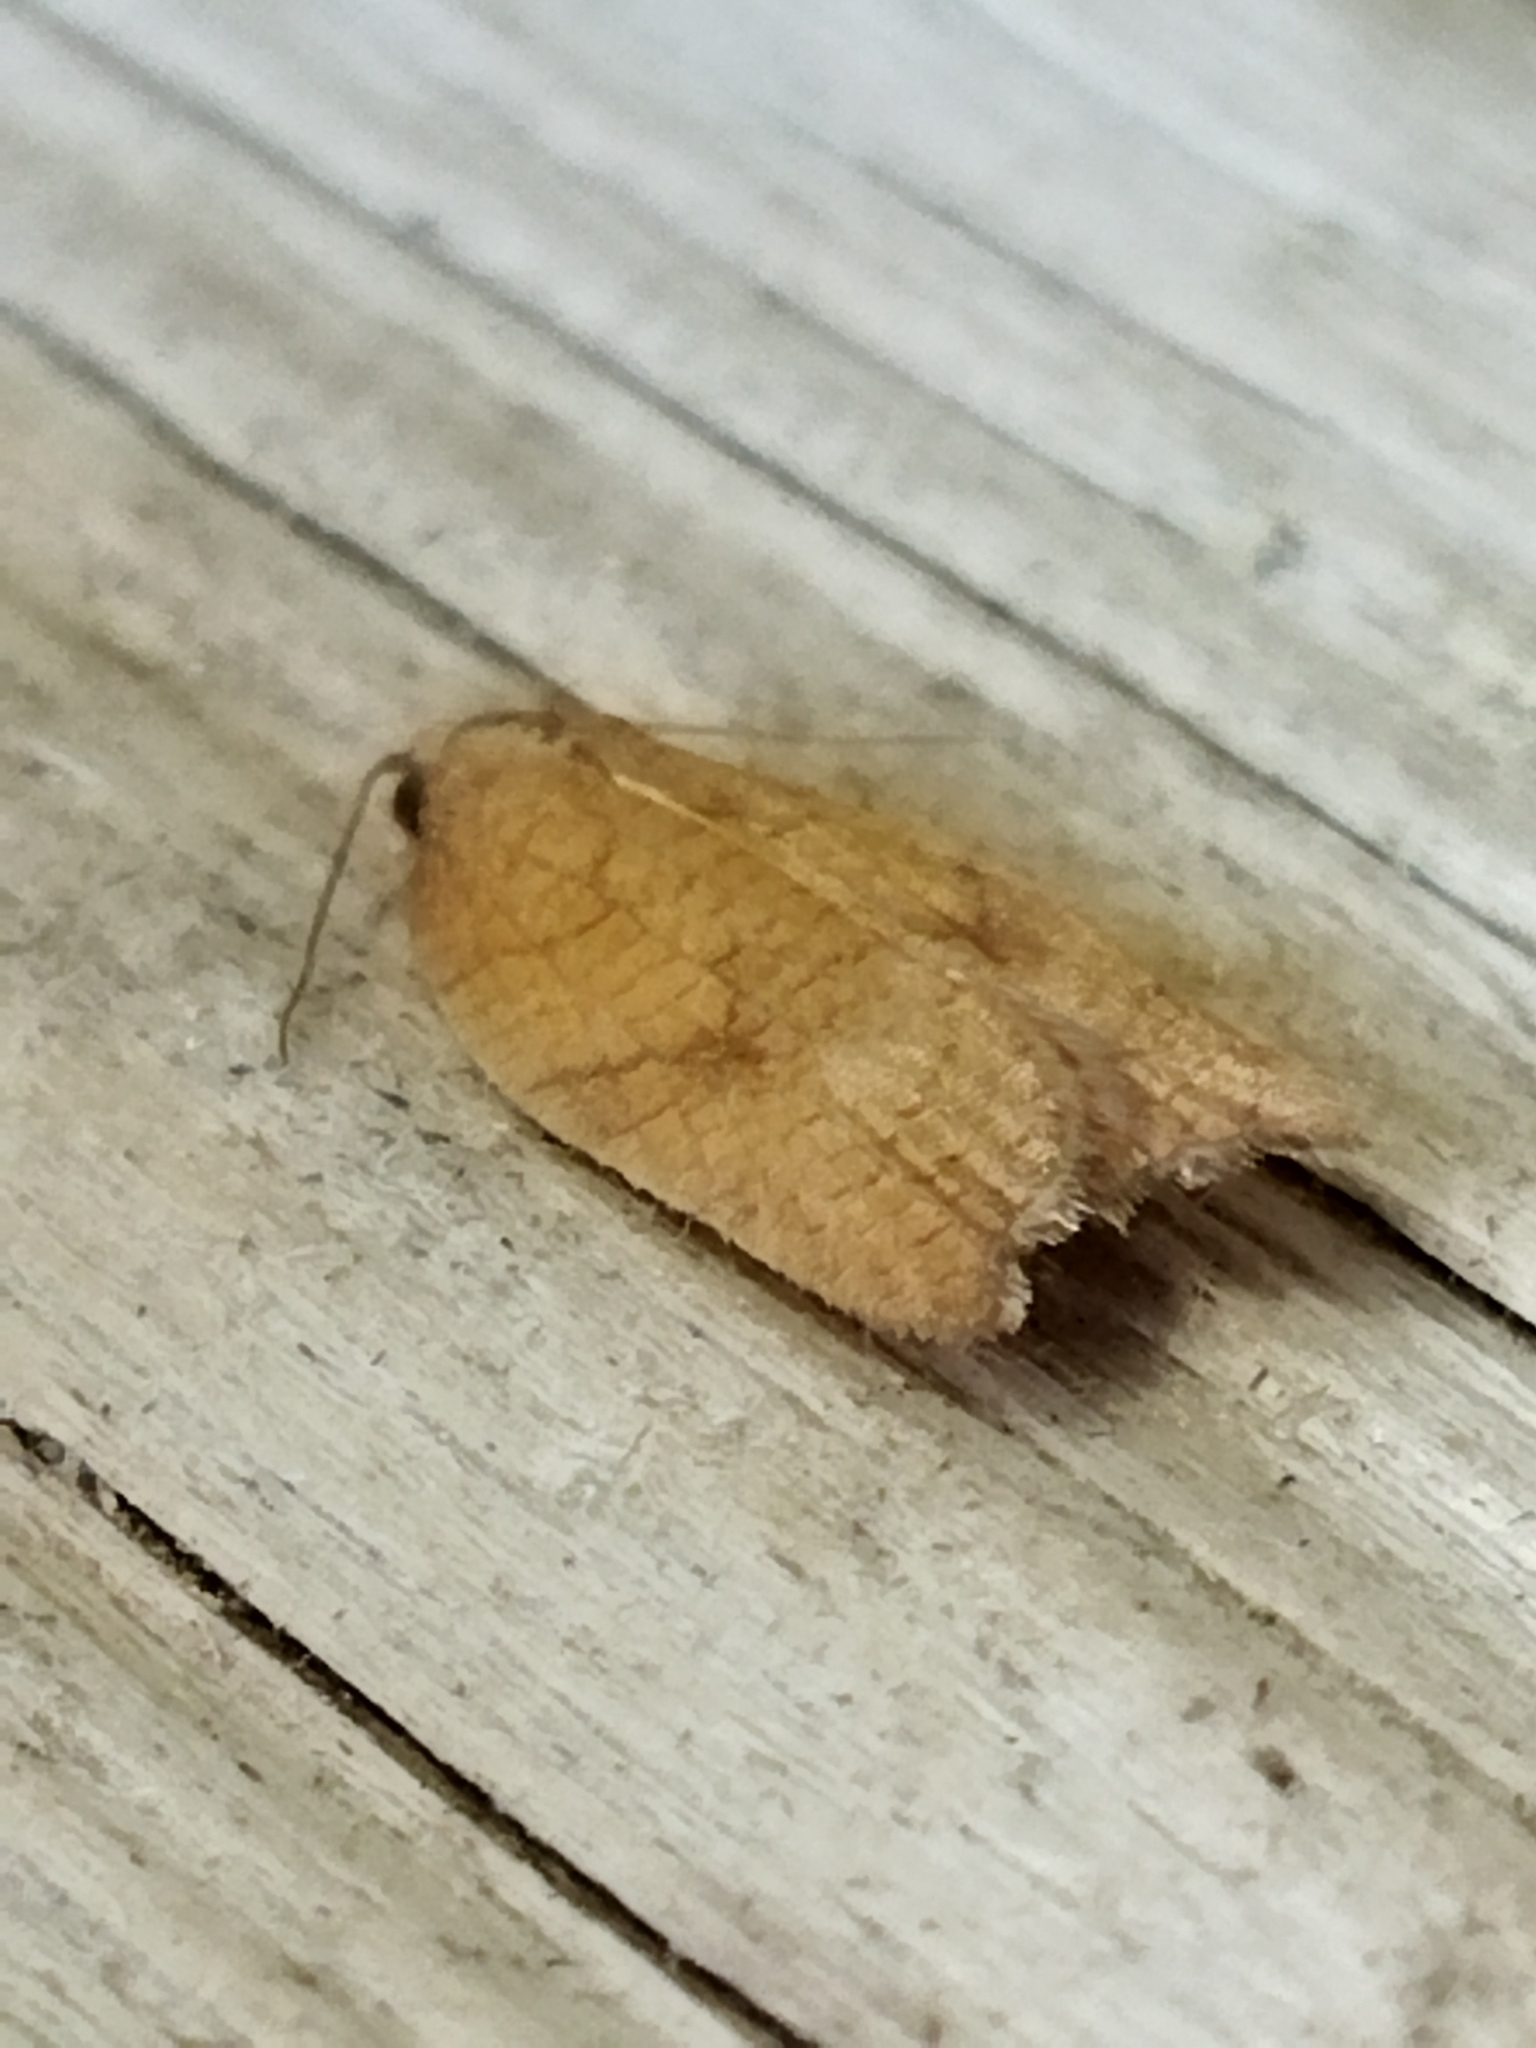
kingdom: Animalia
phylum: Arthropoda
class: Insecta
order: Lepidoptera
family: Tortricidae
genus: Acleris
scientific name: Acleris rhombana
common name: Tortricid moth
